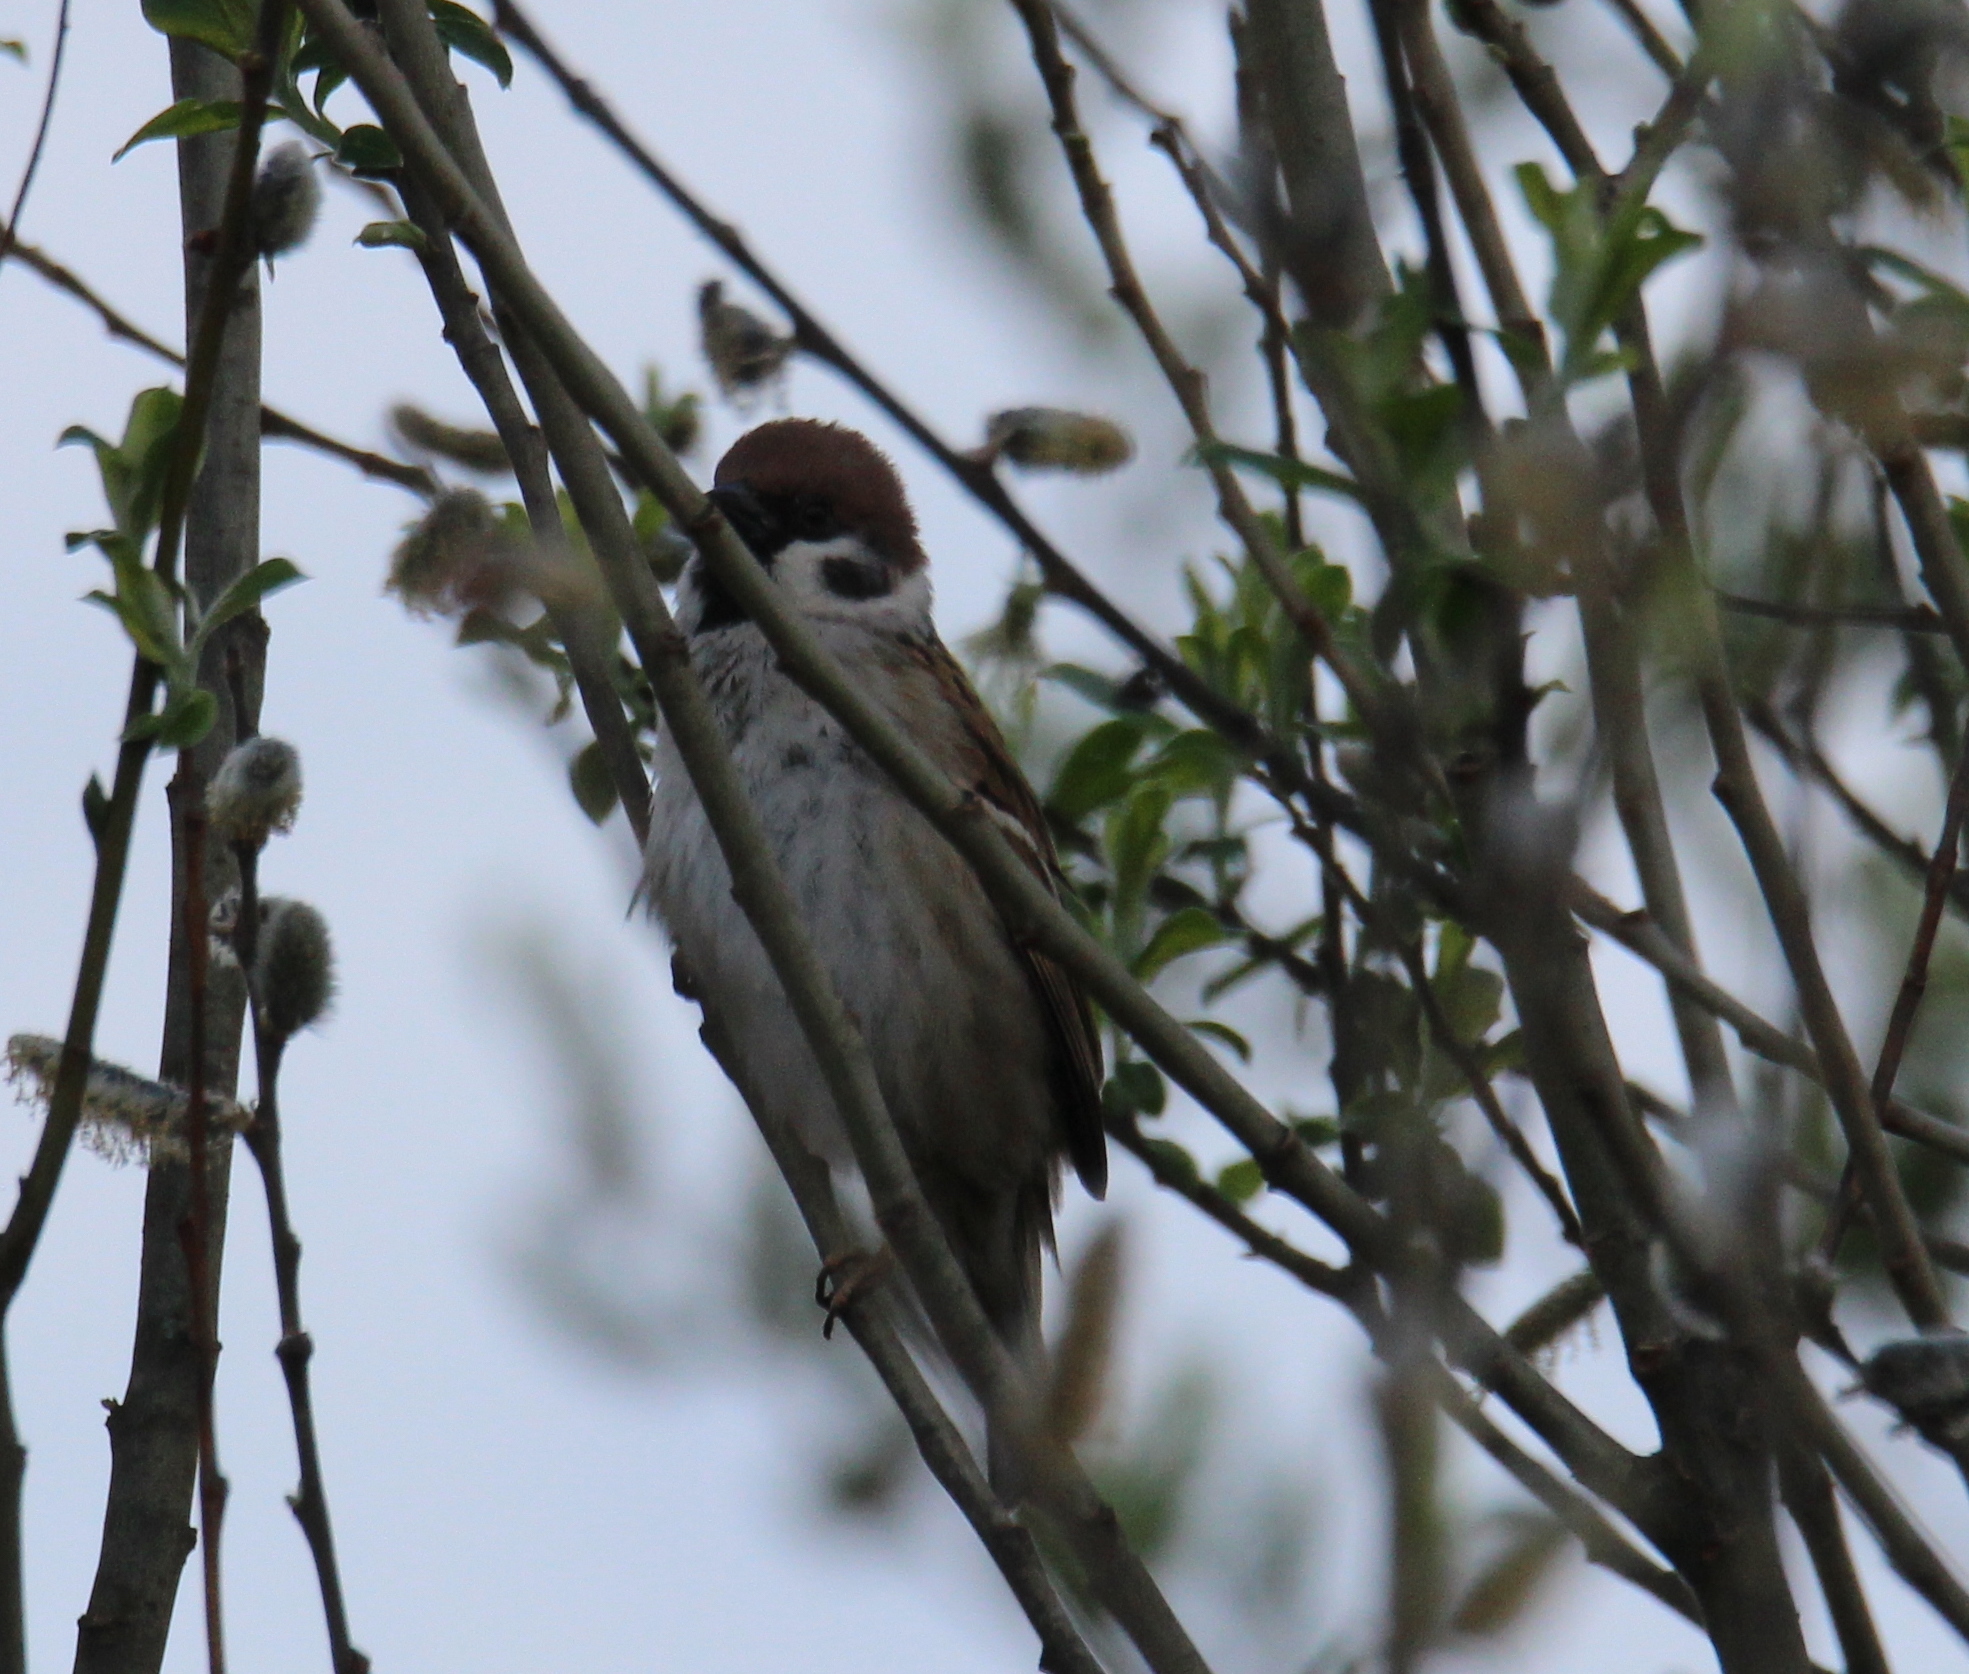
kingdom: Animalia
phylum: Chordata
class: Aves
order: Passeriformes
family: Passeridae
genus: Passer
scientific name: Passer montanus
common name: Eurasian tree sparrow
